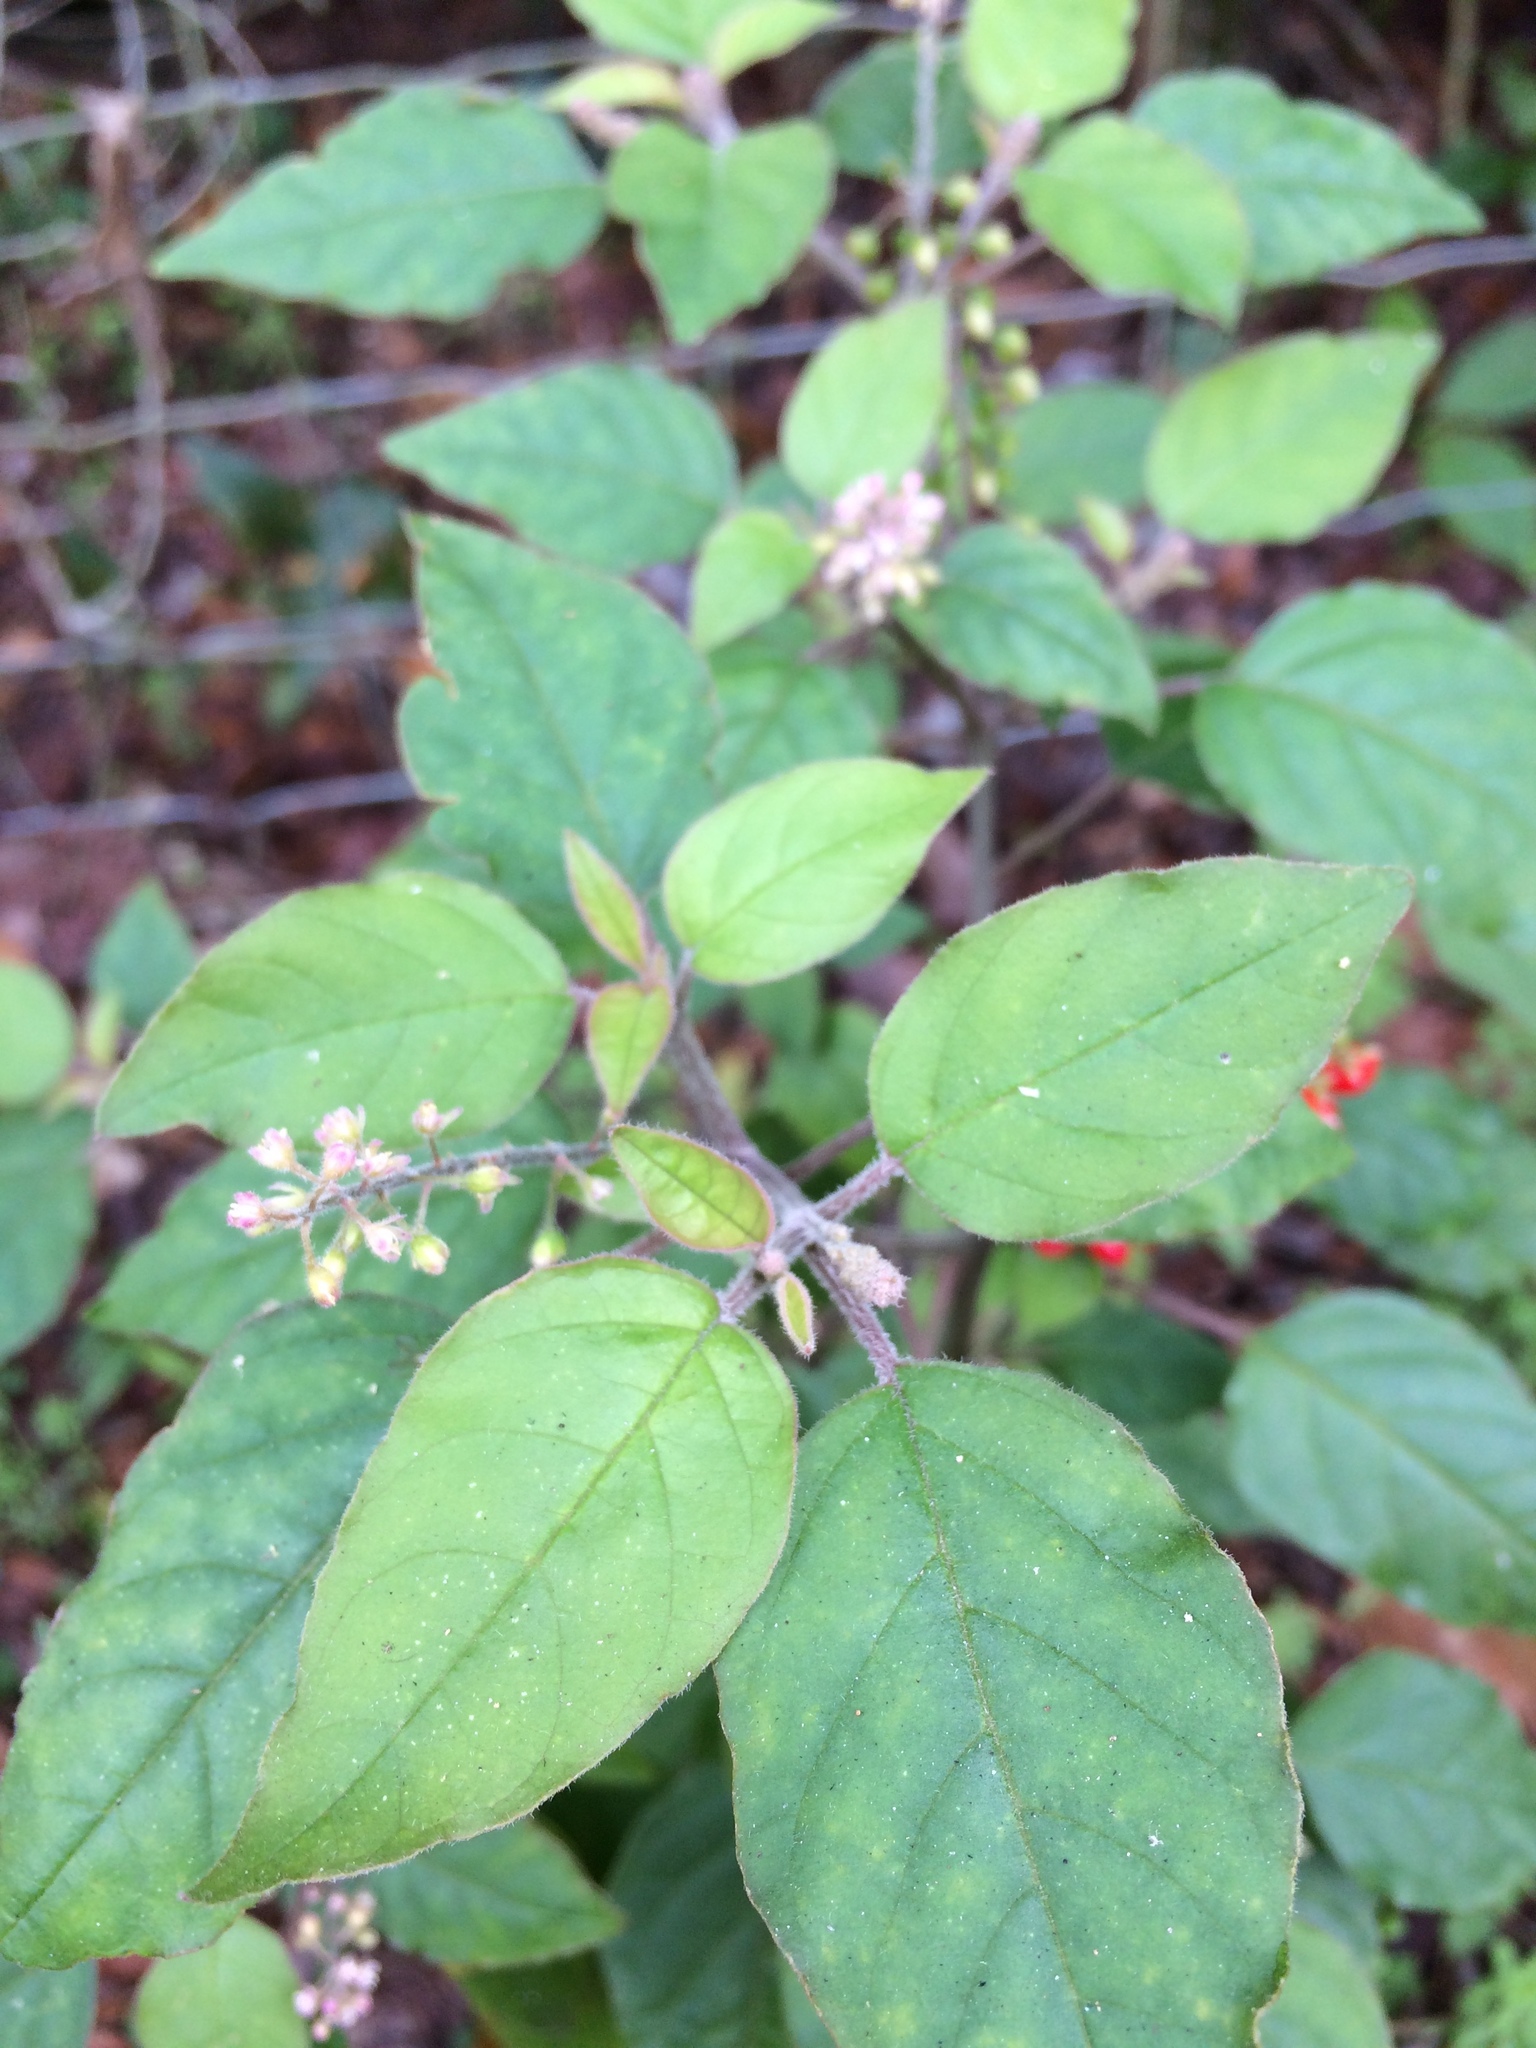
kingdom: Plantae
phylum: Tracheophyta
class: Magnoliopsida
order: Caryophyllales
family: Phytolaccaceae
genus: Rivina
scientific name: Rivina humilis
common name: Rougeplant
